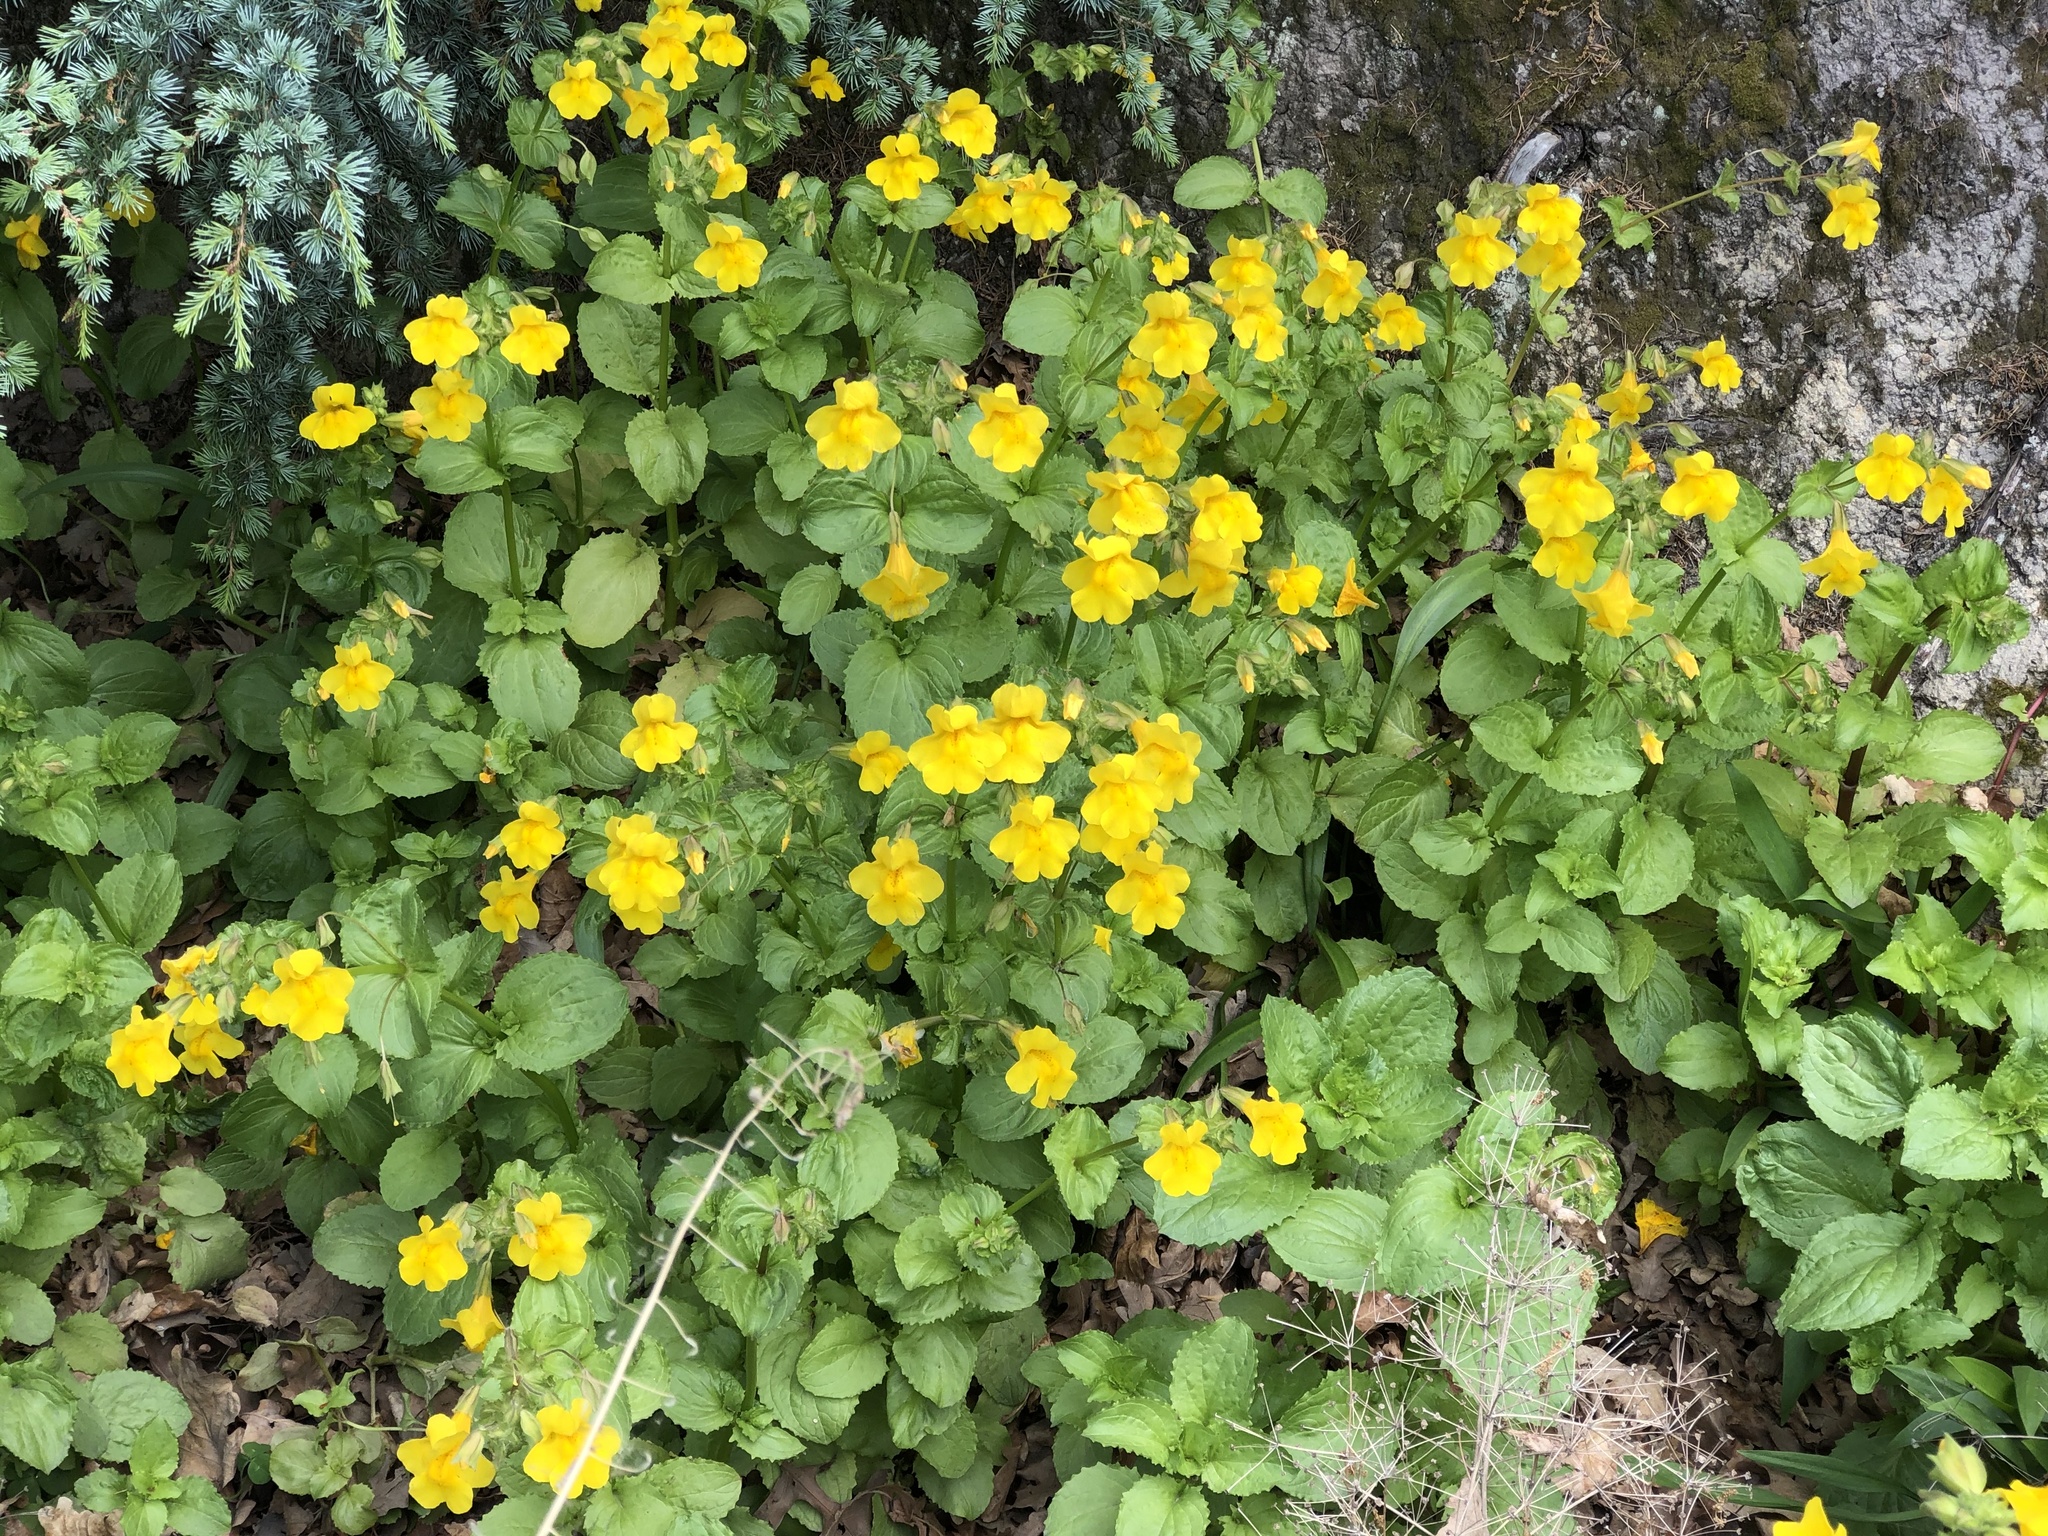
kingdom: Plantae
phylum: Tracheophyta
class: Magnoliopsida
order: Lamiales
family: Phrymaceae
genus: Erythranthe
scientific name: Erythranthe guttata
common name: Monkeyflower
